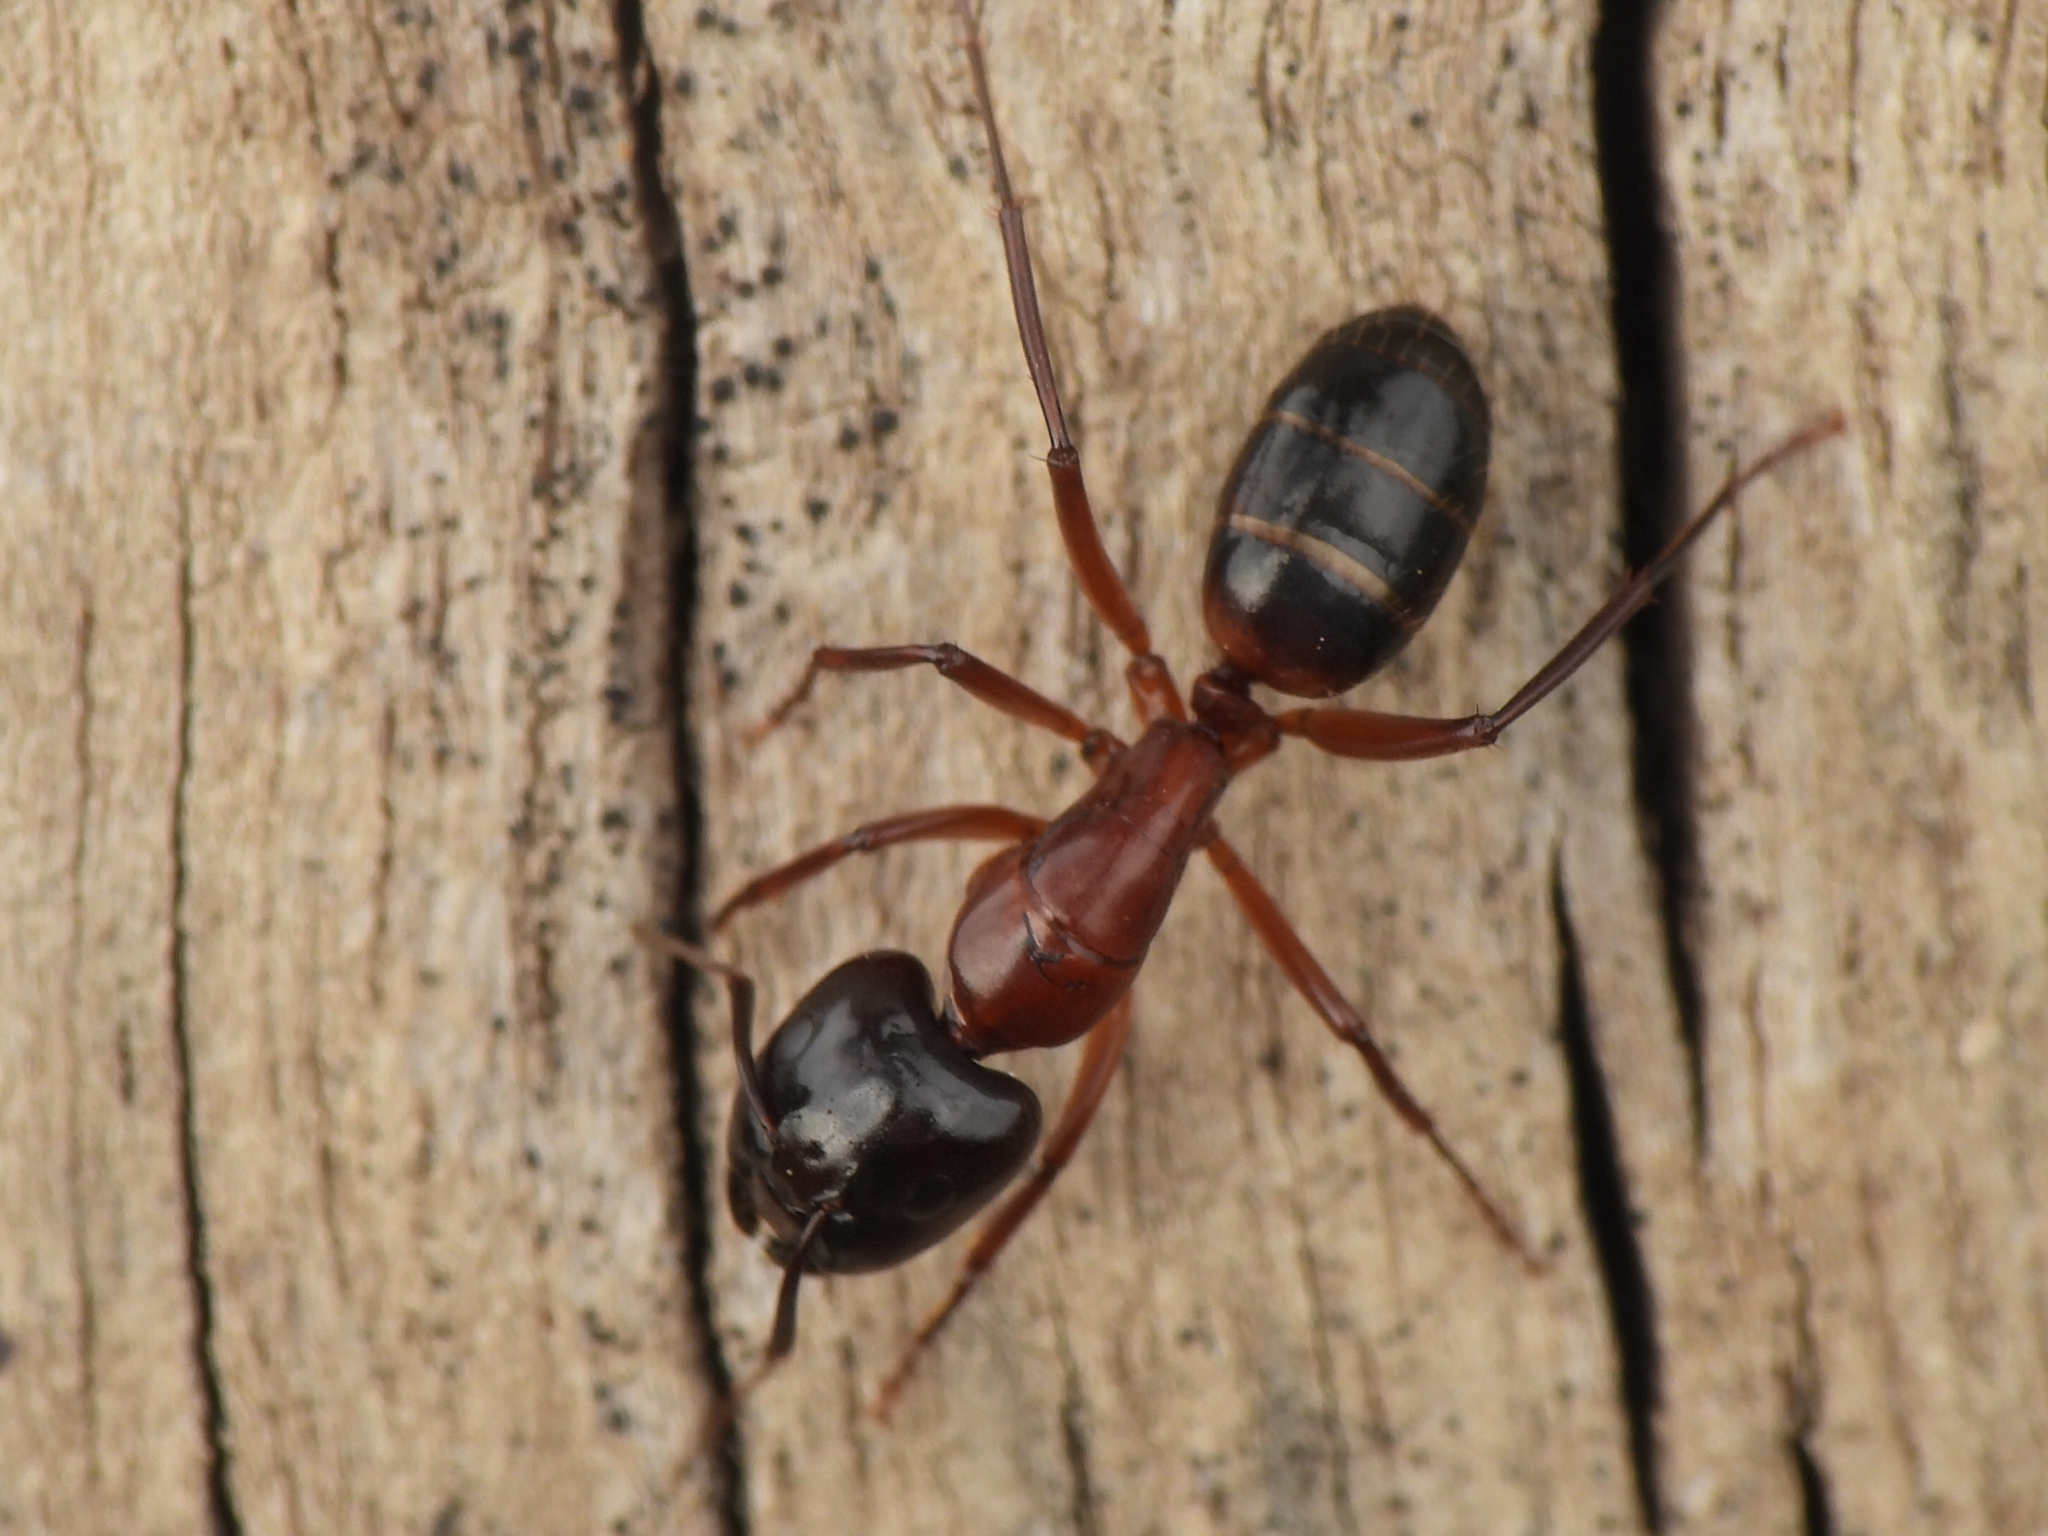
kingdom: Animalia
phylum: Arthropoda
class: Insecta
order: Hymenoptera
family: Formicidae
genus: Camponotus
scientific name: Camponotus texanus
